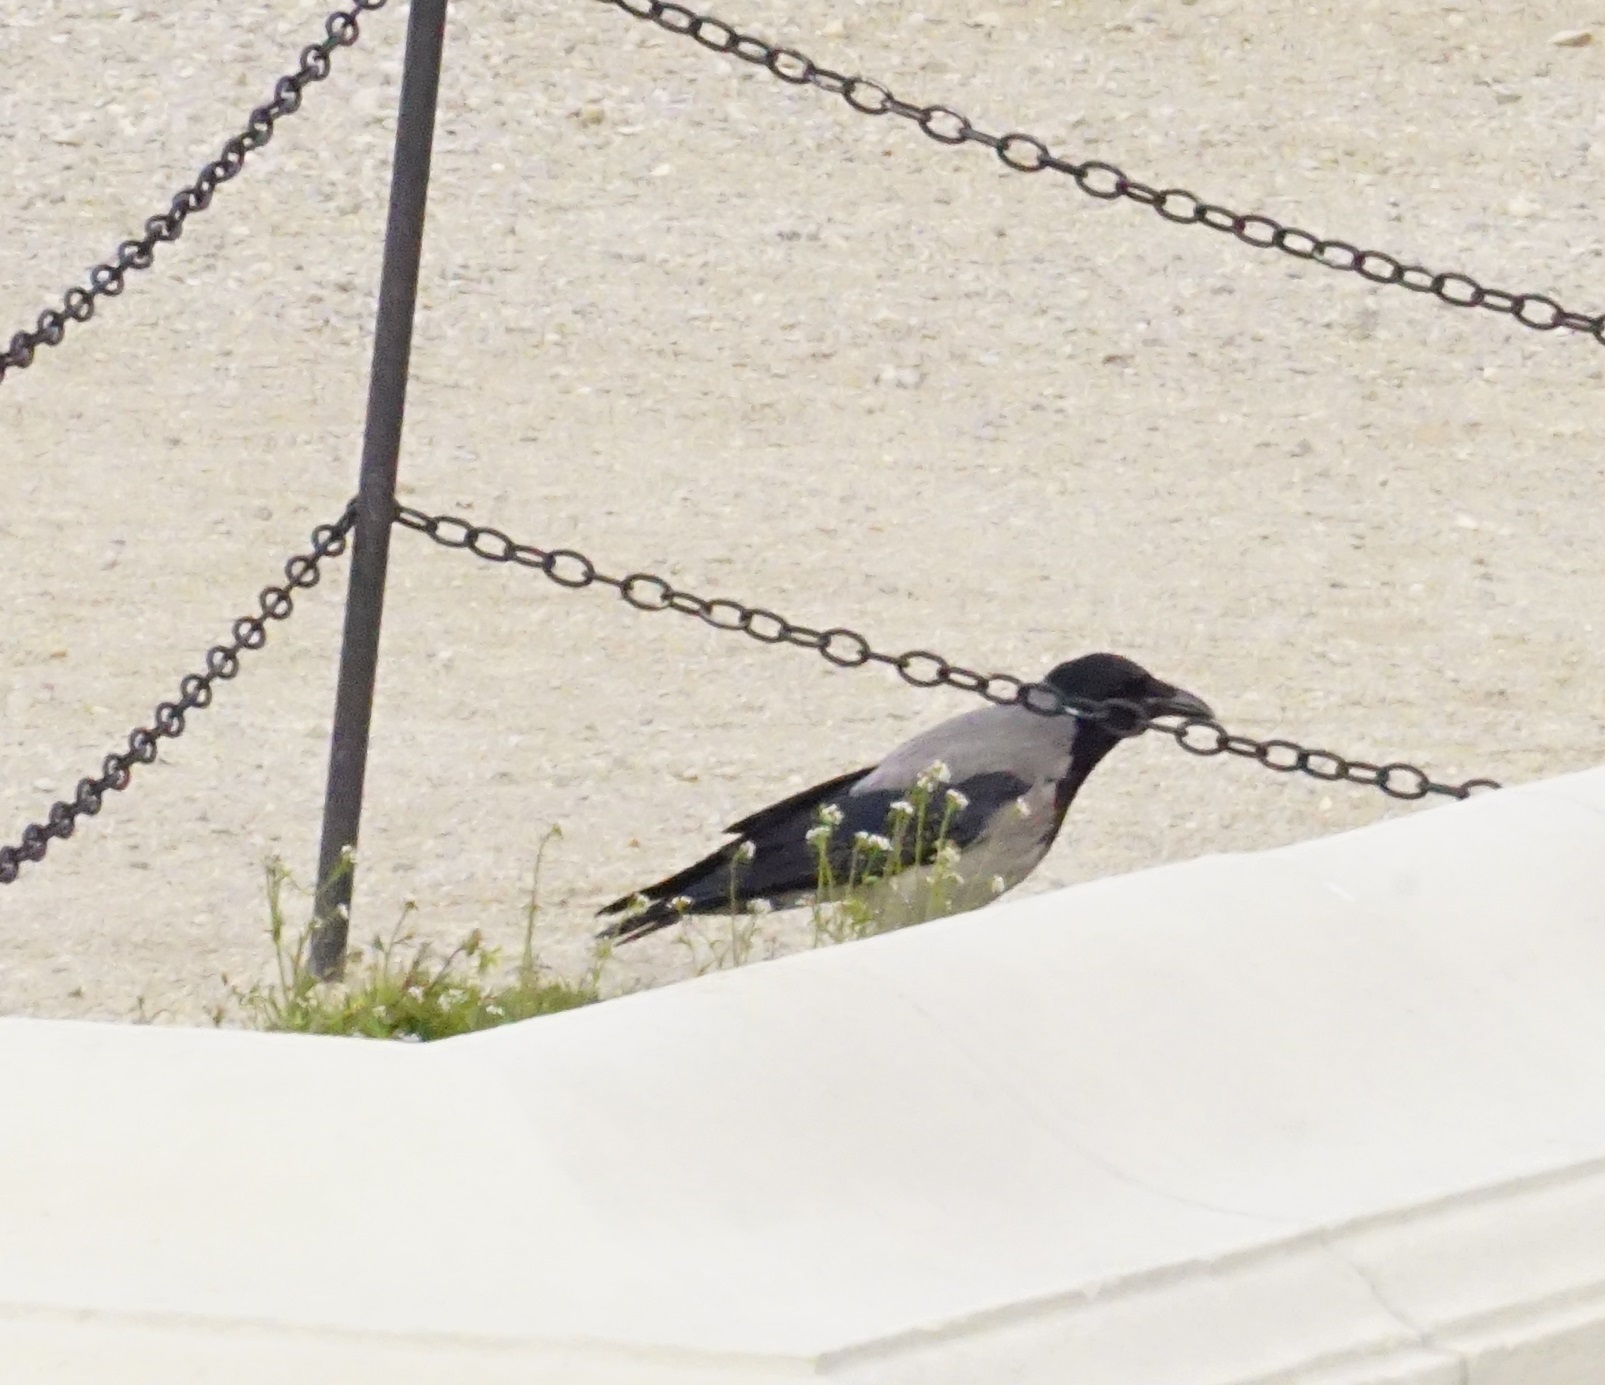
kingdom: Animalia
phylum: Chordata
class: Aves
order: Passeriformes
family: Corvidae
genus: Corvus
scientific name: Corvus cornix
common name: Hooded crow
